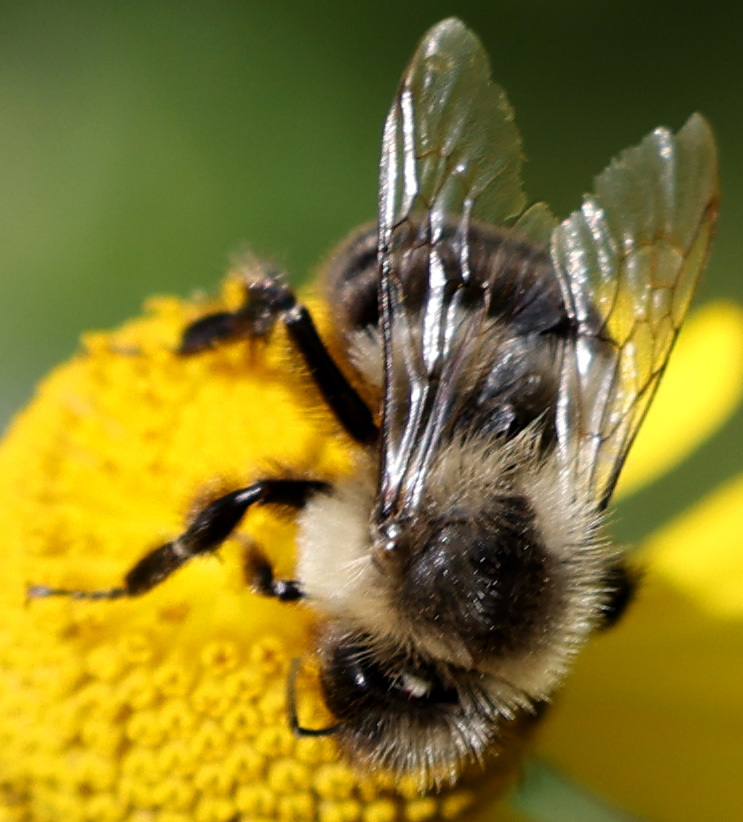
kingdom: Animalia
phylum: Arthropoda
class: Insecta
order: Hymenoptera
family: Apidae
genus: Bombus
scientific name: Bombus impatiens
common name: Common eastern bumble bee
